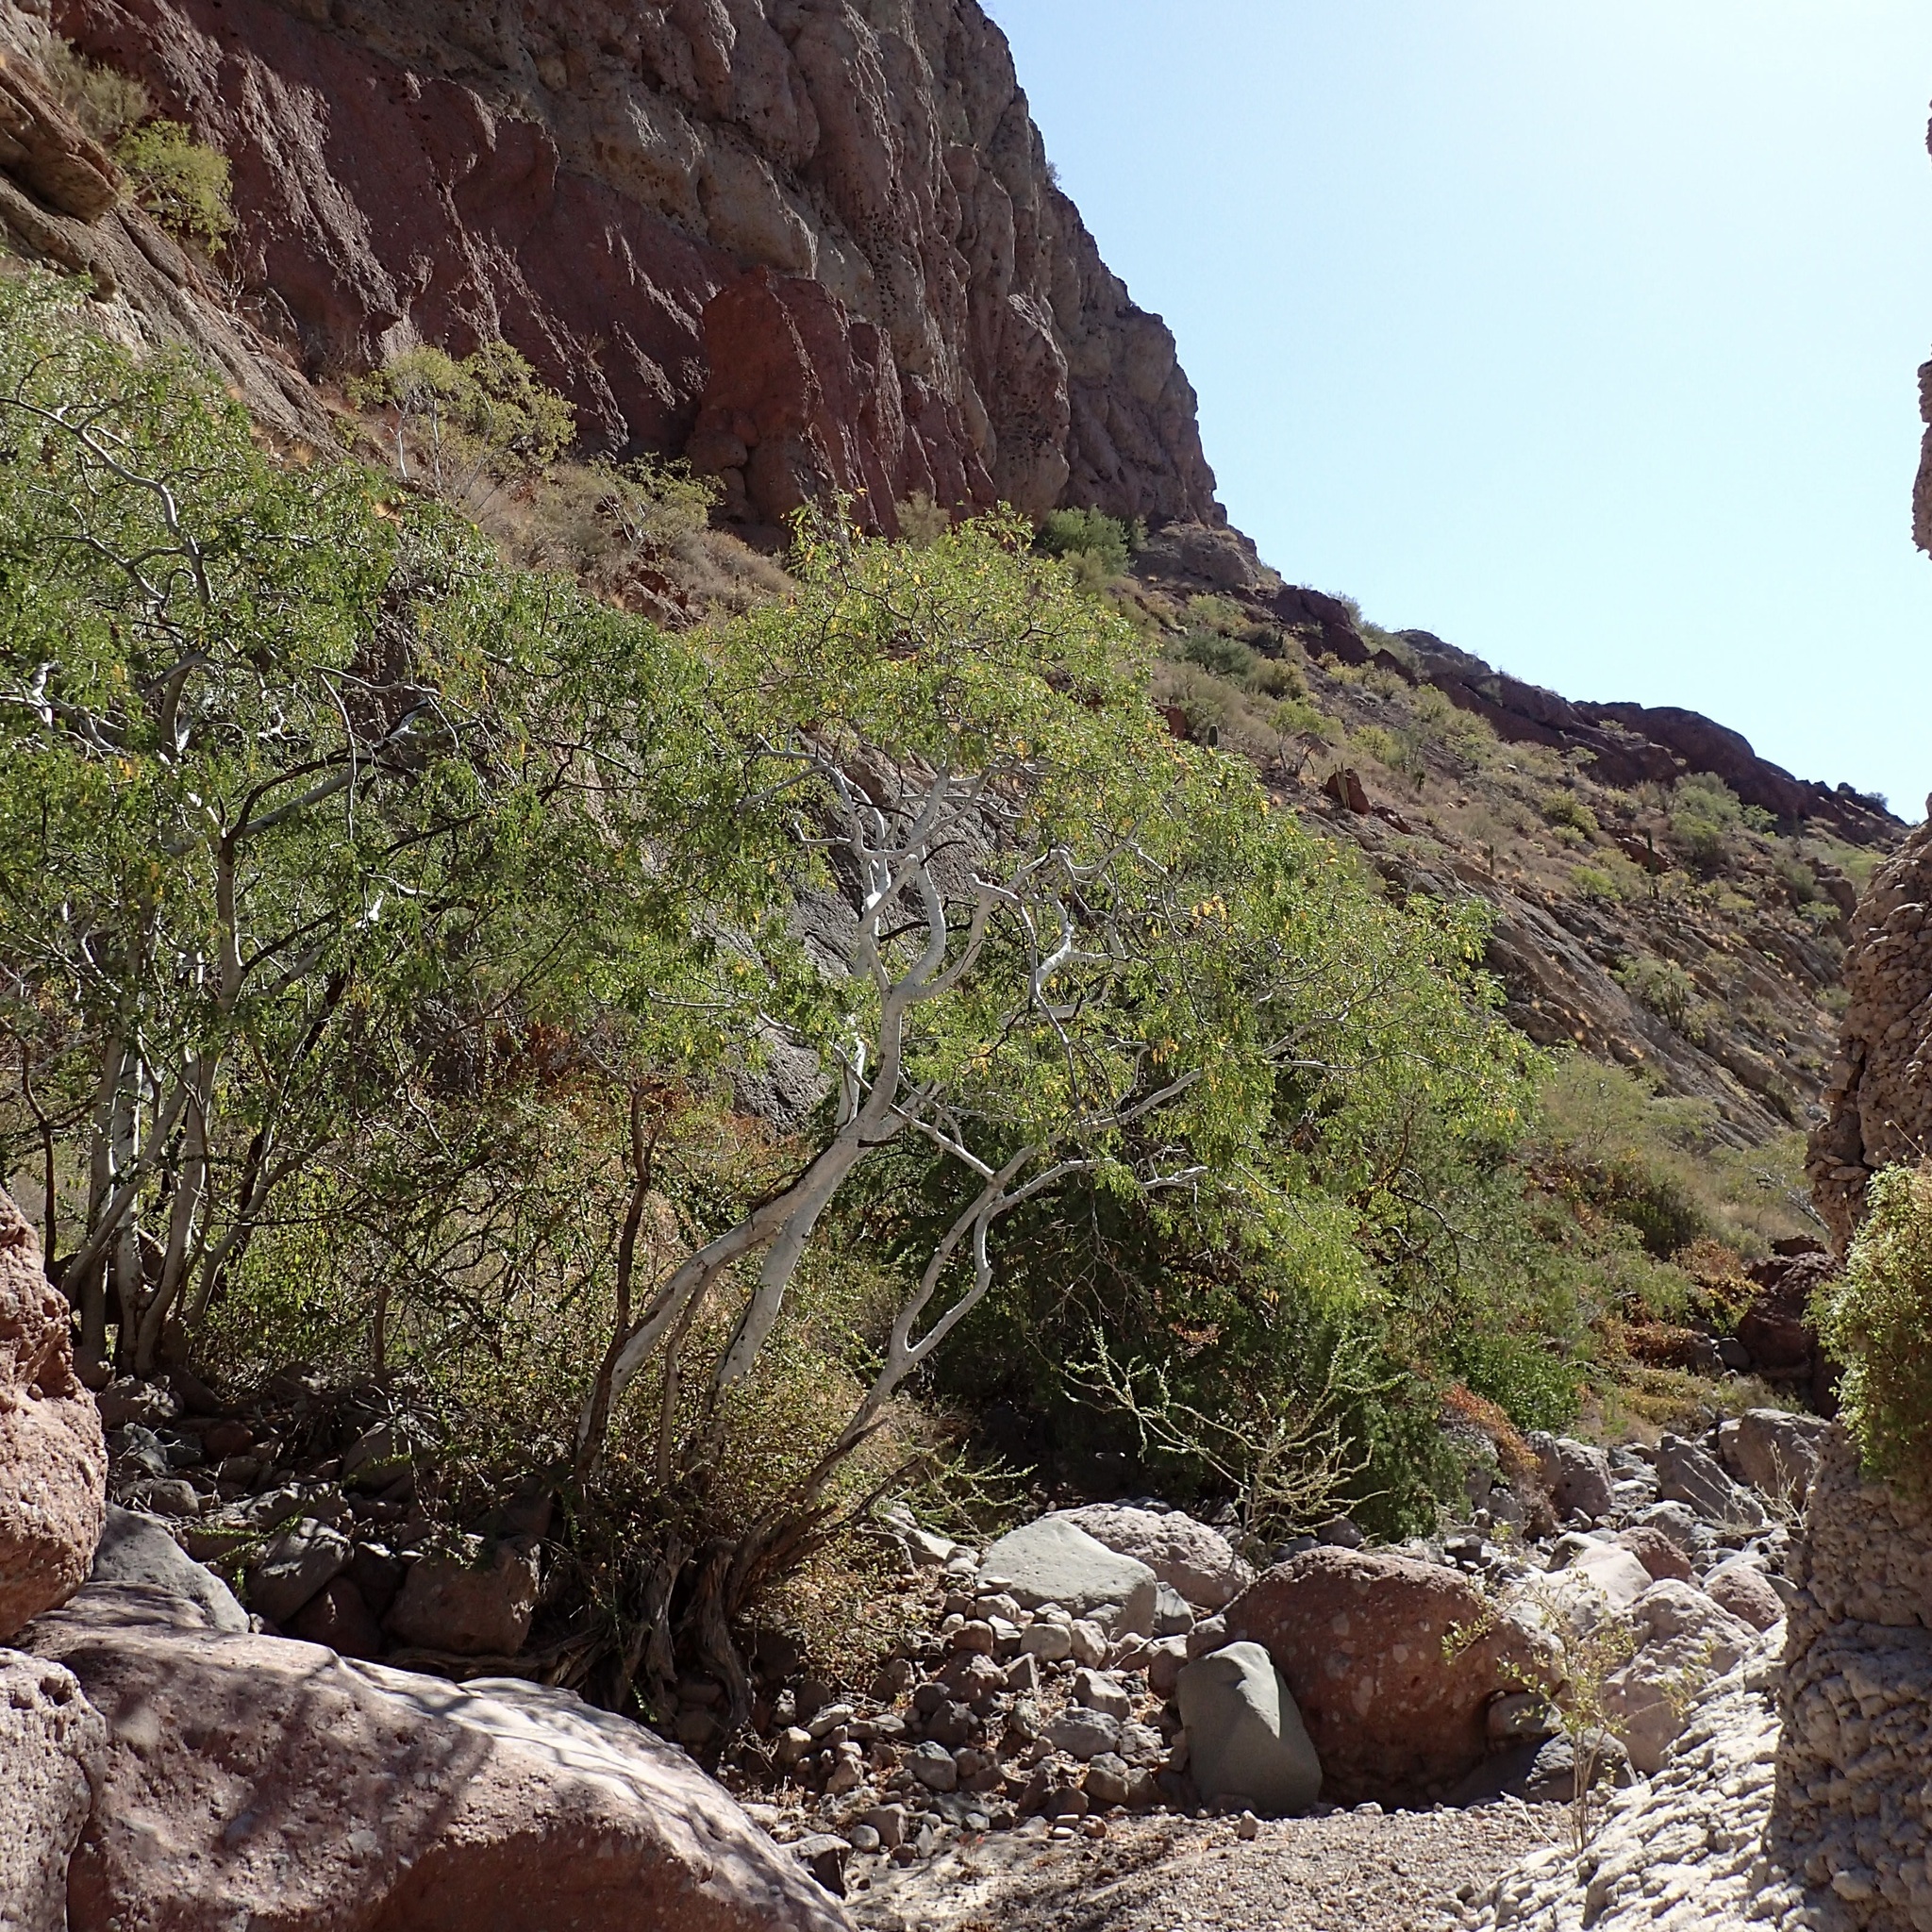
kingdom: Plantae
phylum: Tracheophyta
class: Magnoliopsida
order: Fabales
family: Fabaceae
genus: Lysiloma
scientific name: Lysiloma candidum
